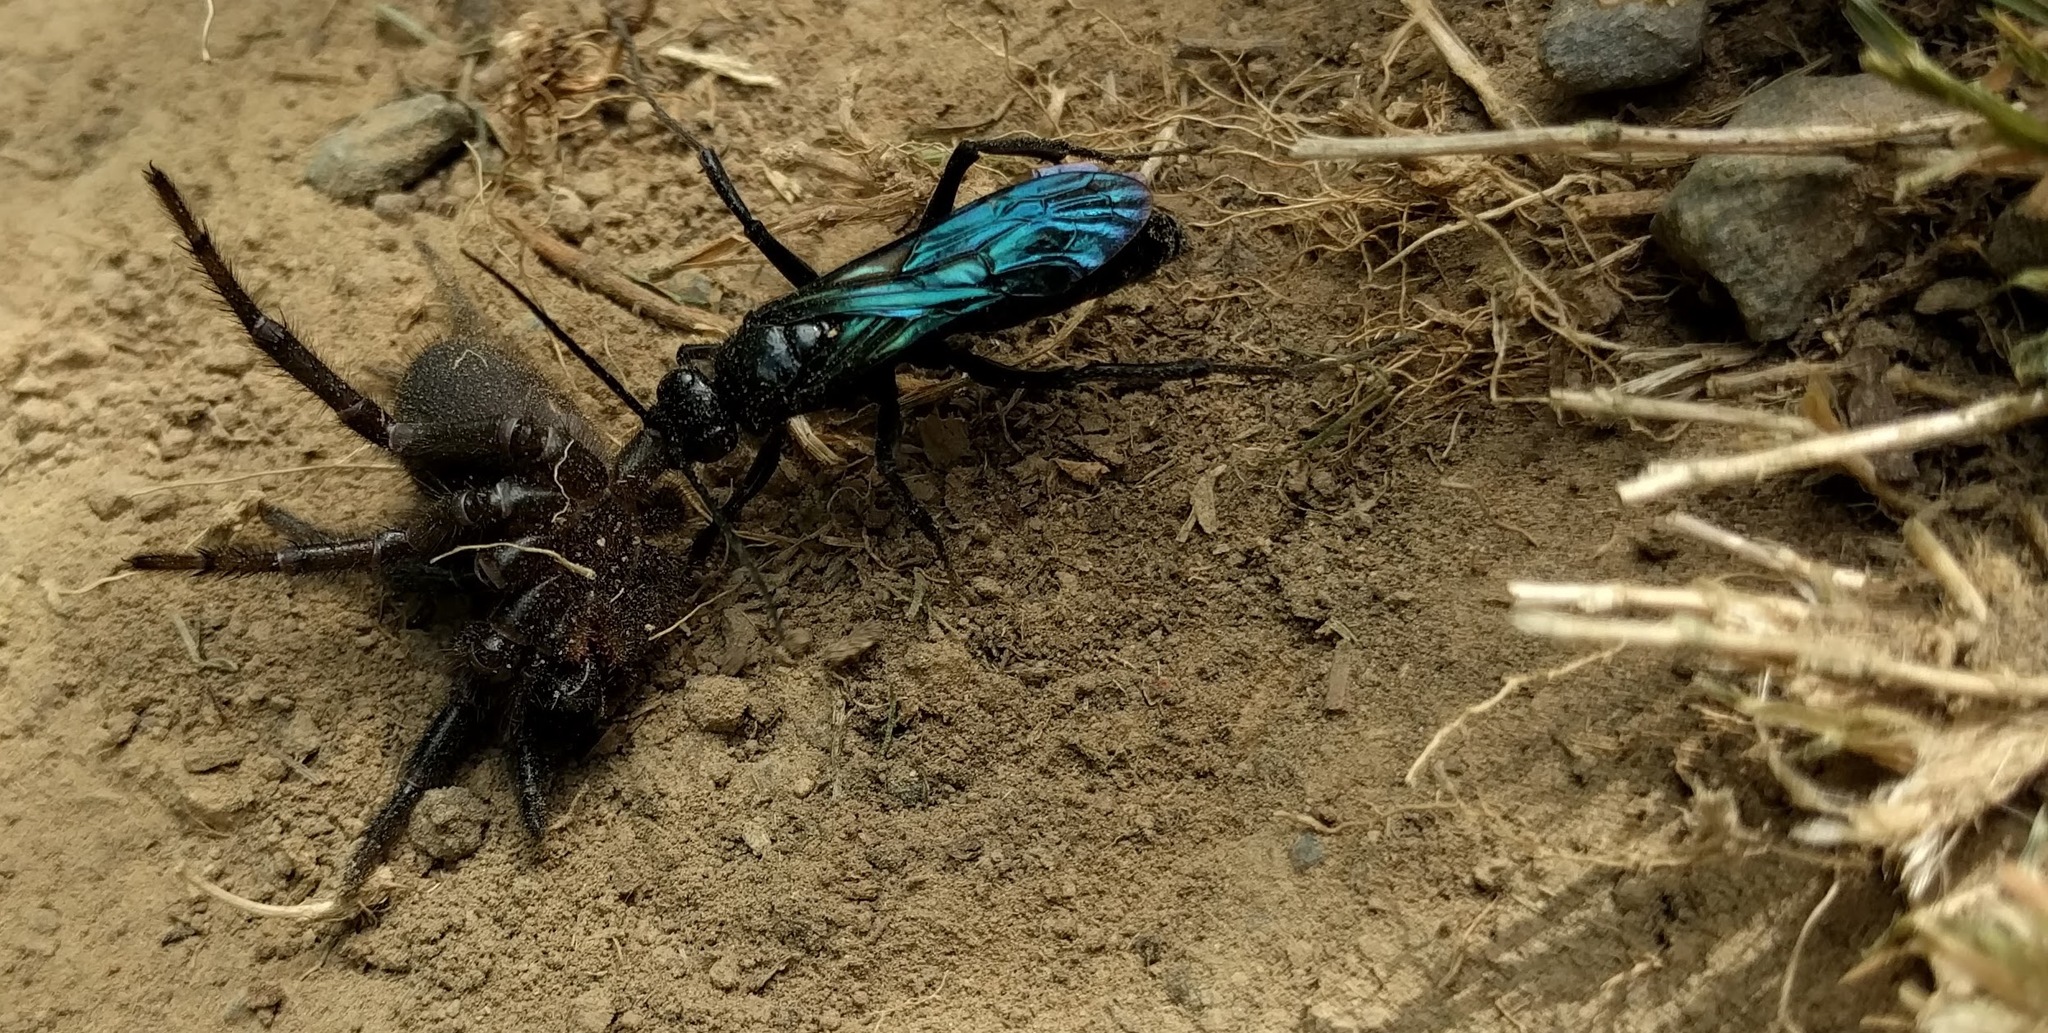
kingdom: Animalia
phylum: Arthropoda
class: Insecta
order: Hymenoptera
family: Pompilidae
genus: Priocnemis
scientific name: Priocnemis monachus
